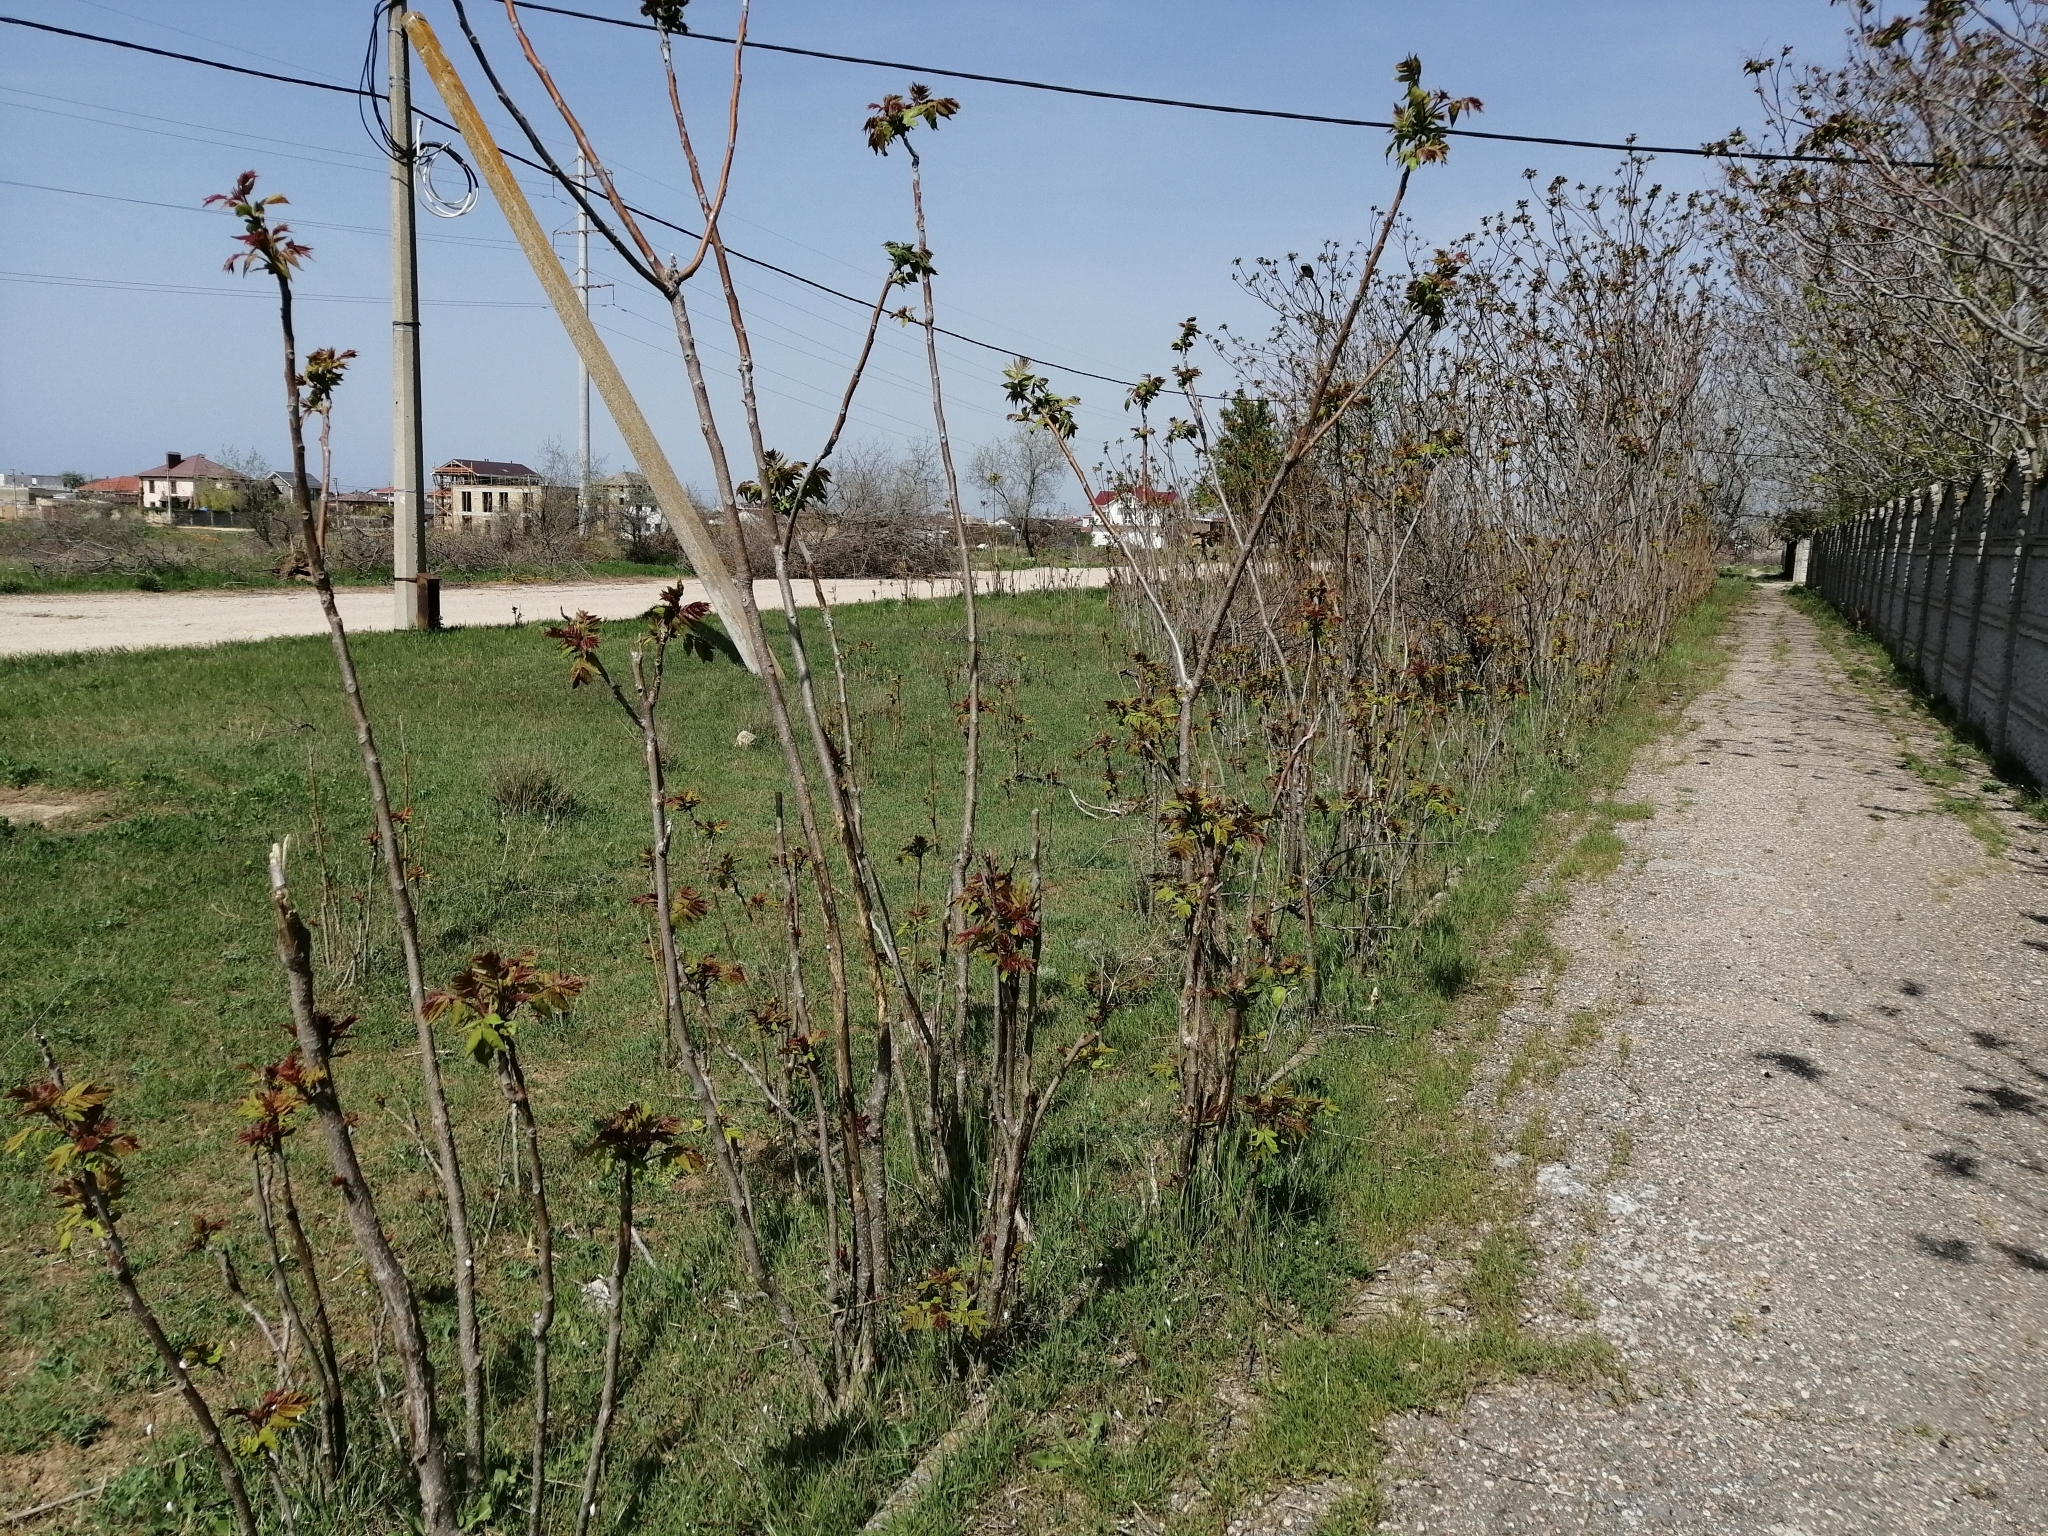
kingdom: Plantae
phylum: Tracheophyta
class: Magnoliopsida
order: Sapindales
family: Simaroubaceae
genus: Ailanthus
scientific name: Ailanthus altissima
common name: Tree-of-heaven
